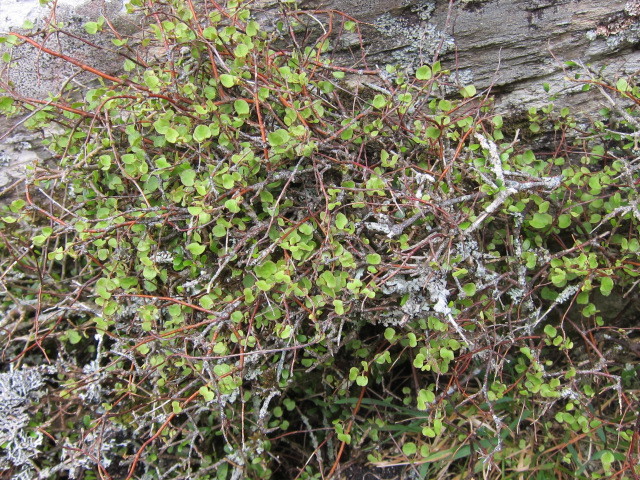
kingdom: Plantae
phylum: Tracheophyta
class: Magnoliopsida
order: Caryophyllales
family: Polygonaceae
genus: Muehlenbeckia
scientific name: Muehlenbeckia complexa
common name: Wireplant
